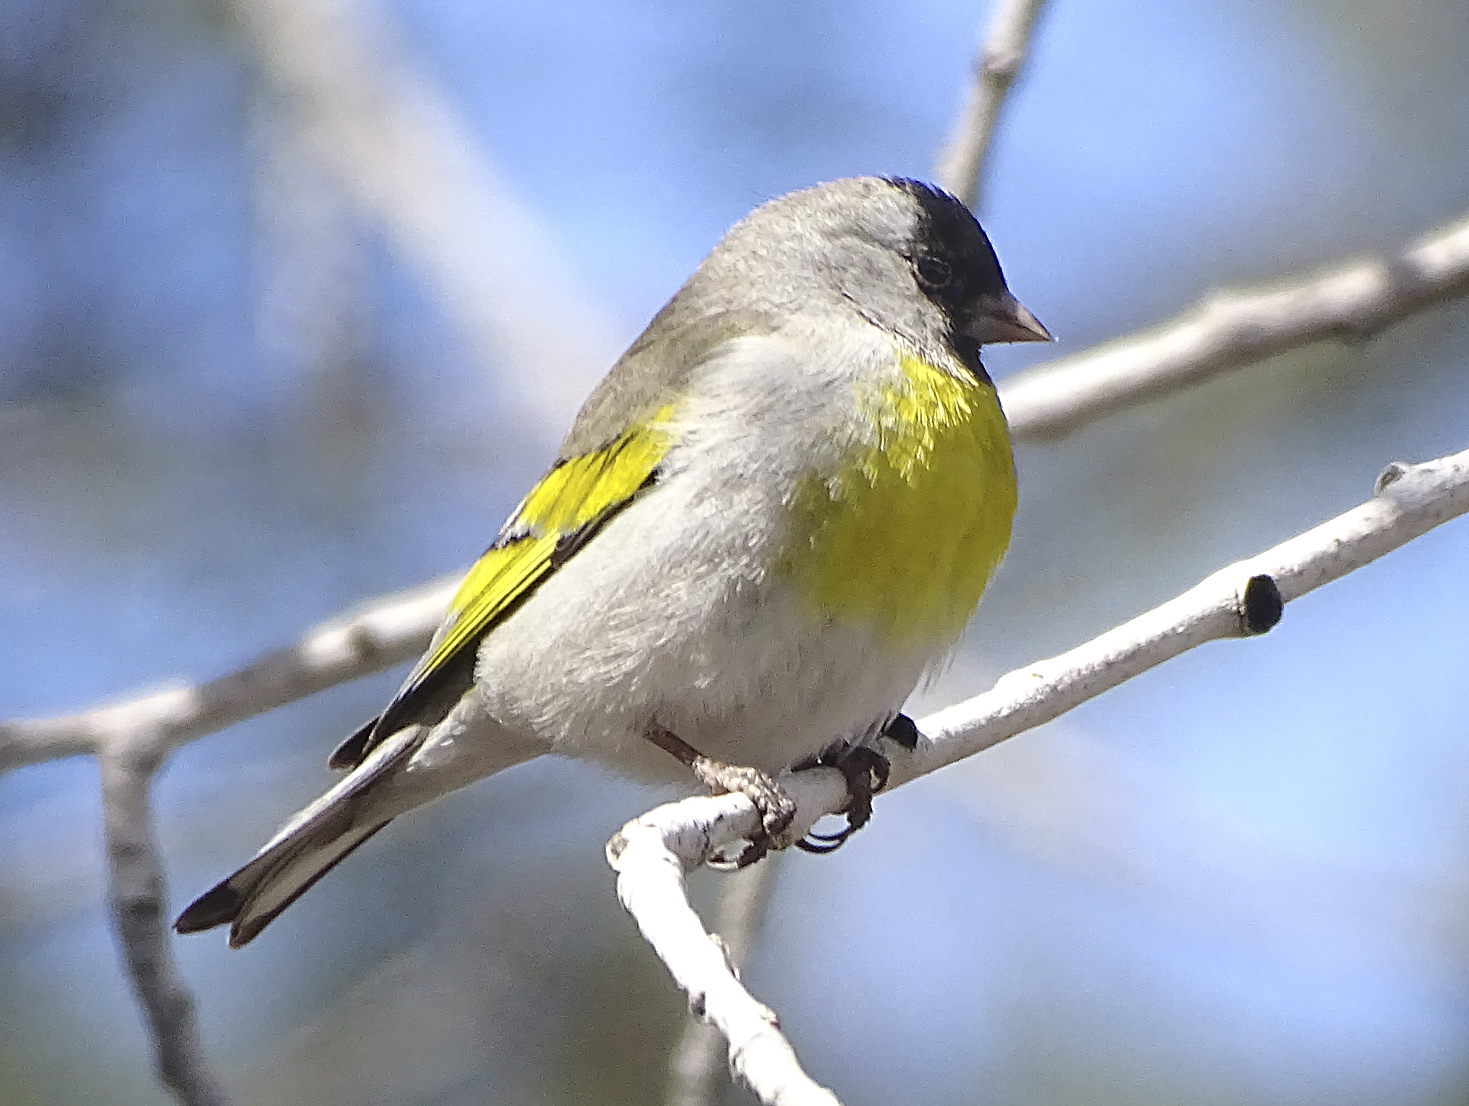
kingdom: Animalia
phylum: Chordata
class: Aves
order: Passeriformes
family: Fringillidae
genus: Spinus
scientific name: Spinus lawrencei
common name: Lawrence's goldfinch
